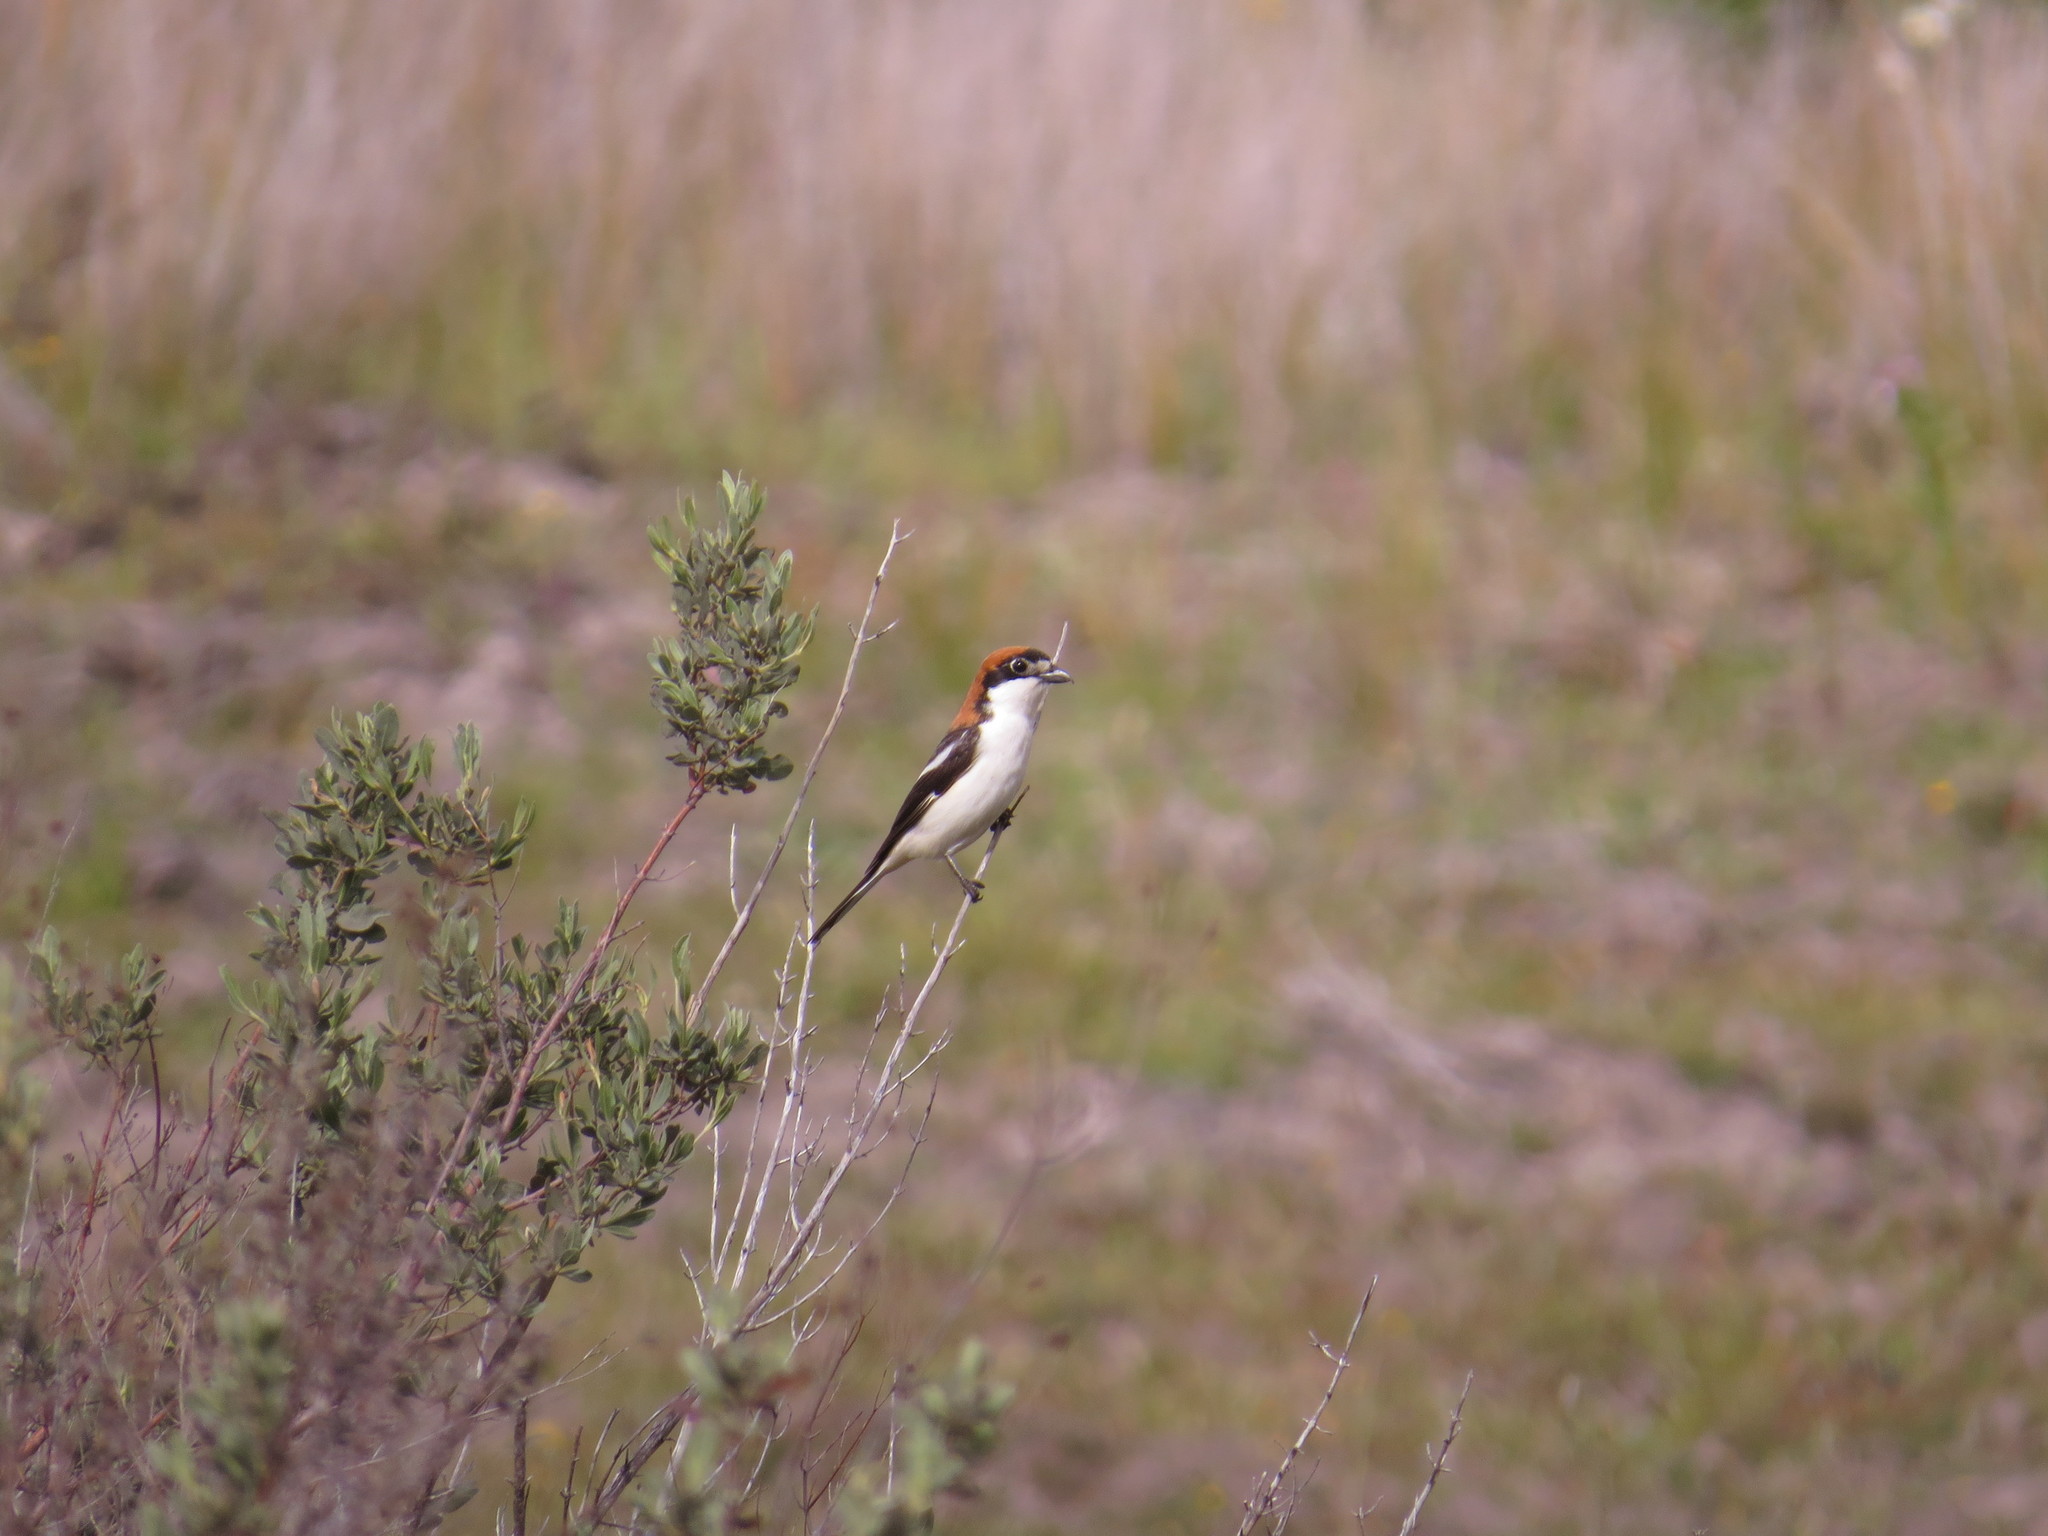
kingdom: Animalia
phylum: Chordata
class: Aves
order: Passeriformes
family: Laniidae
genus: Lanius
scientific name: Lanius senator
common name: Woodchat shrike
